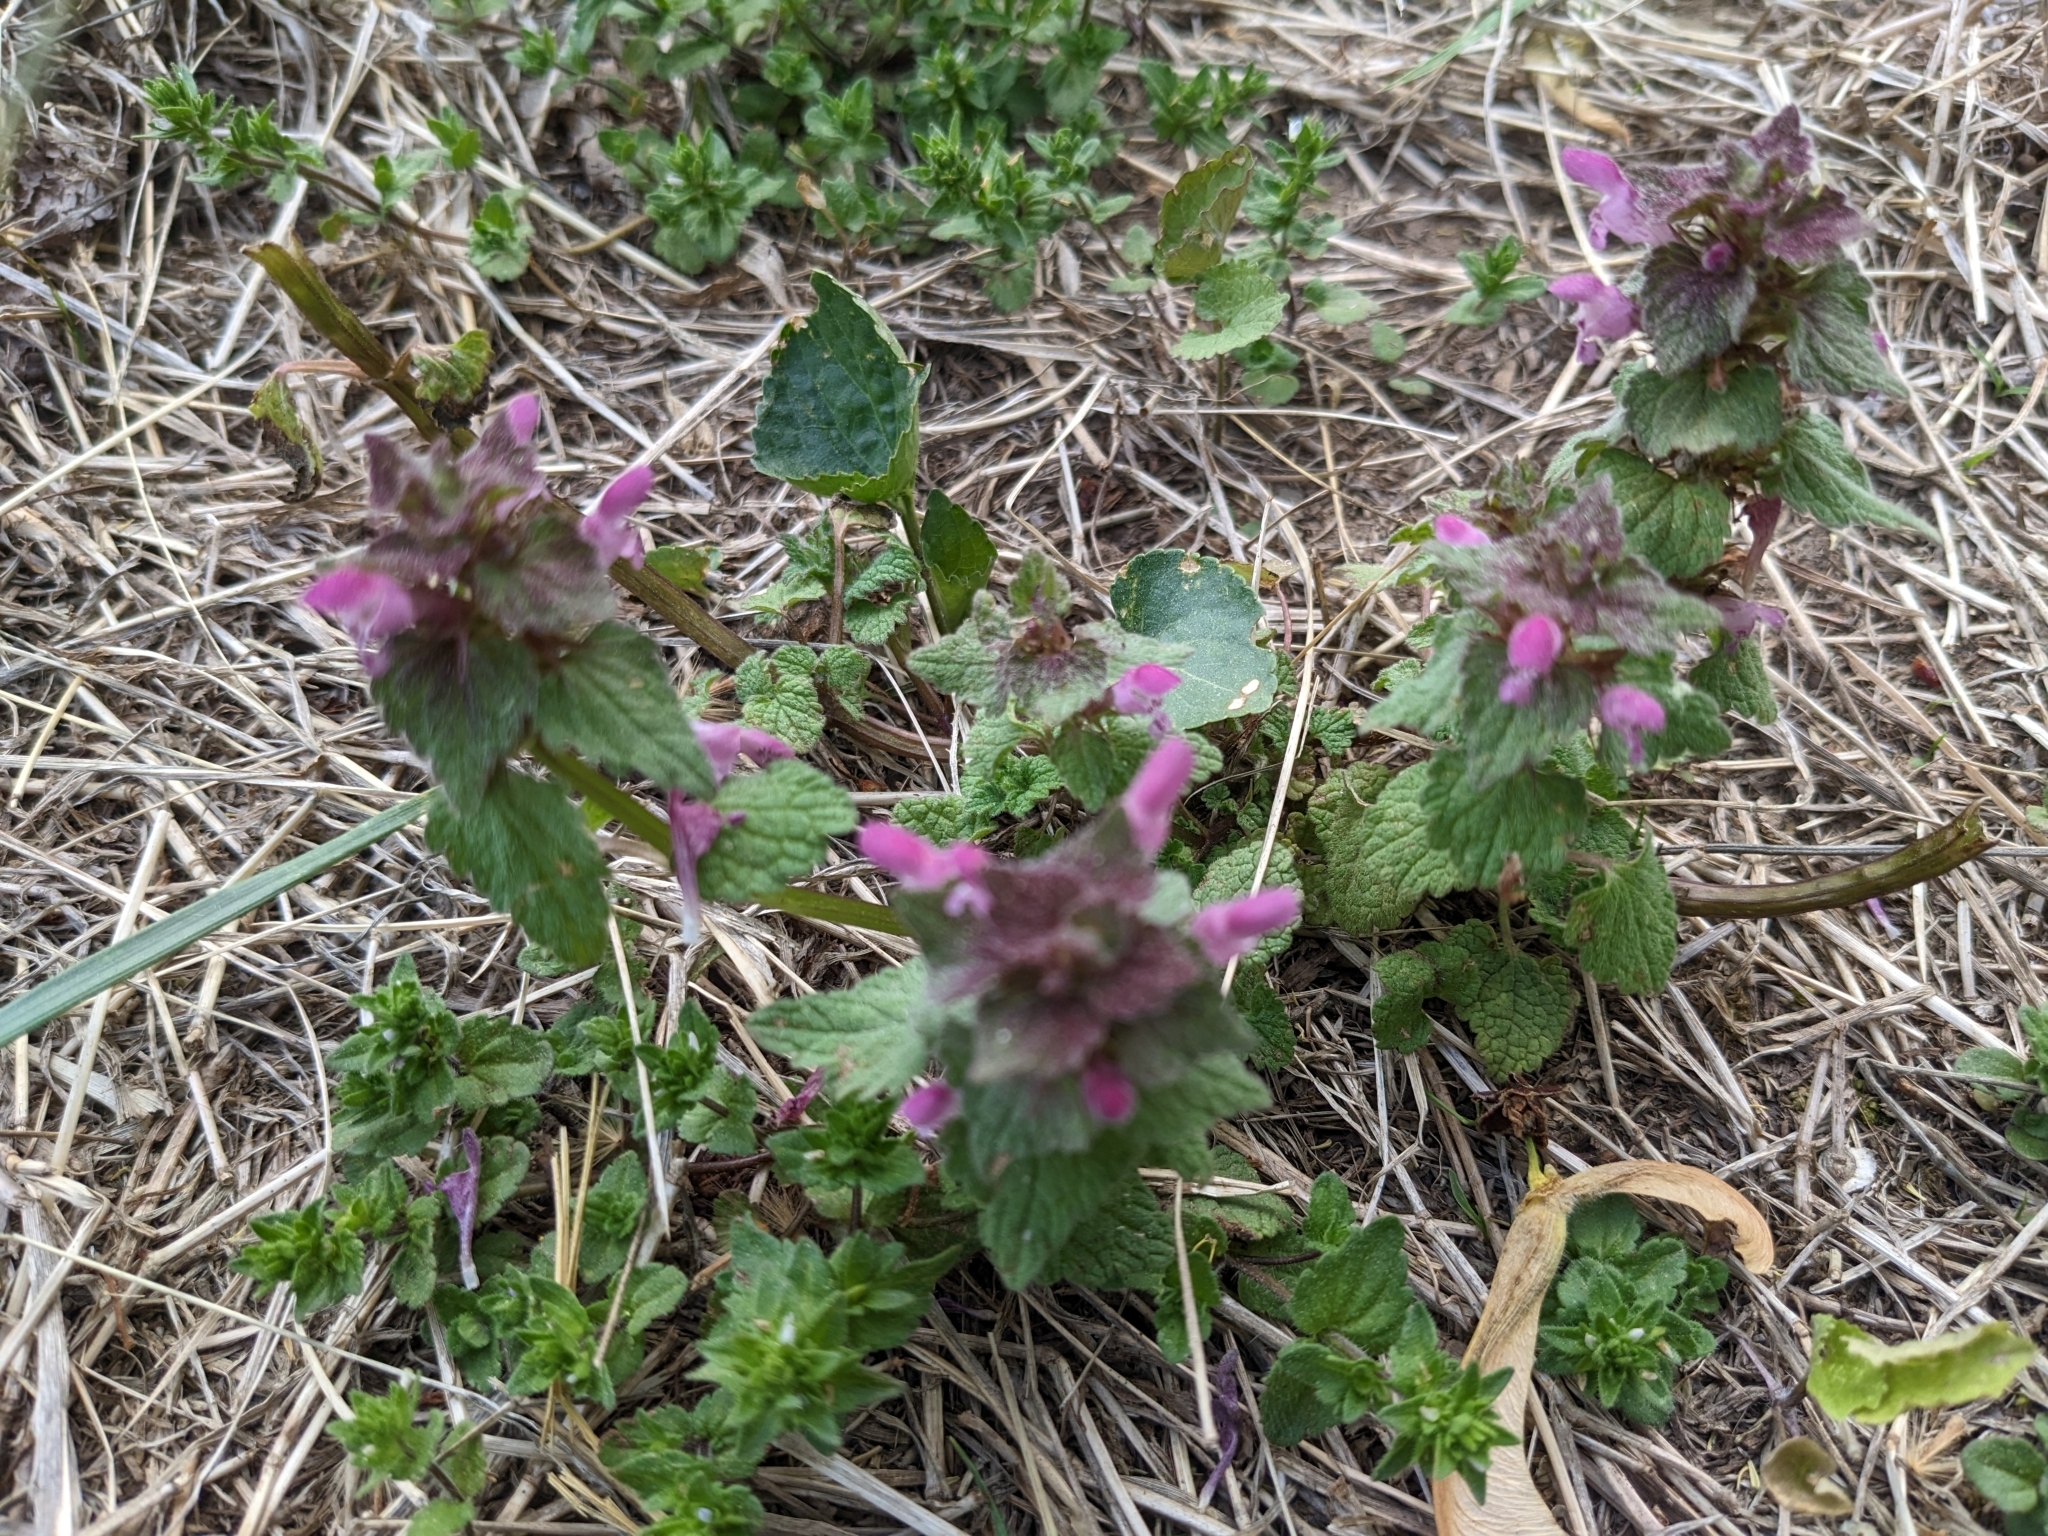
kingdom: Plantae
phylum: Tracheophyta
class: Magnoliopsida
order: Lamiales
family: Lamiaceae
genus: Lamium
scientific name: Lamium purpureum
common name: Red dead-nettle
